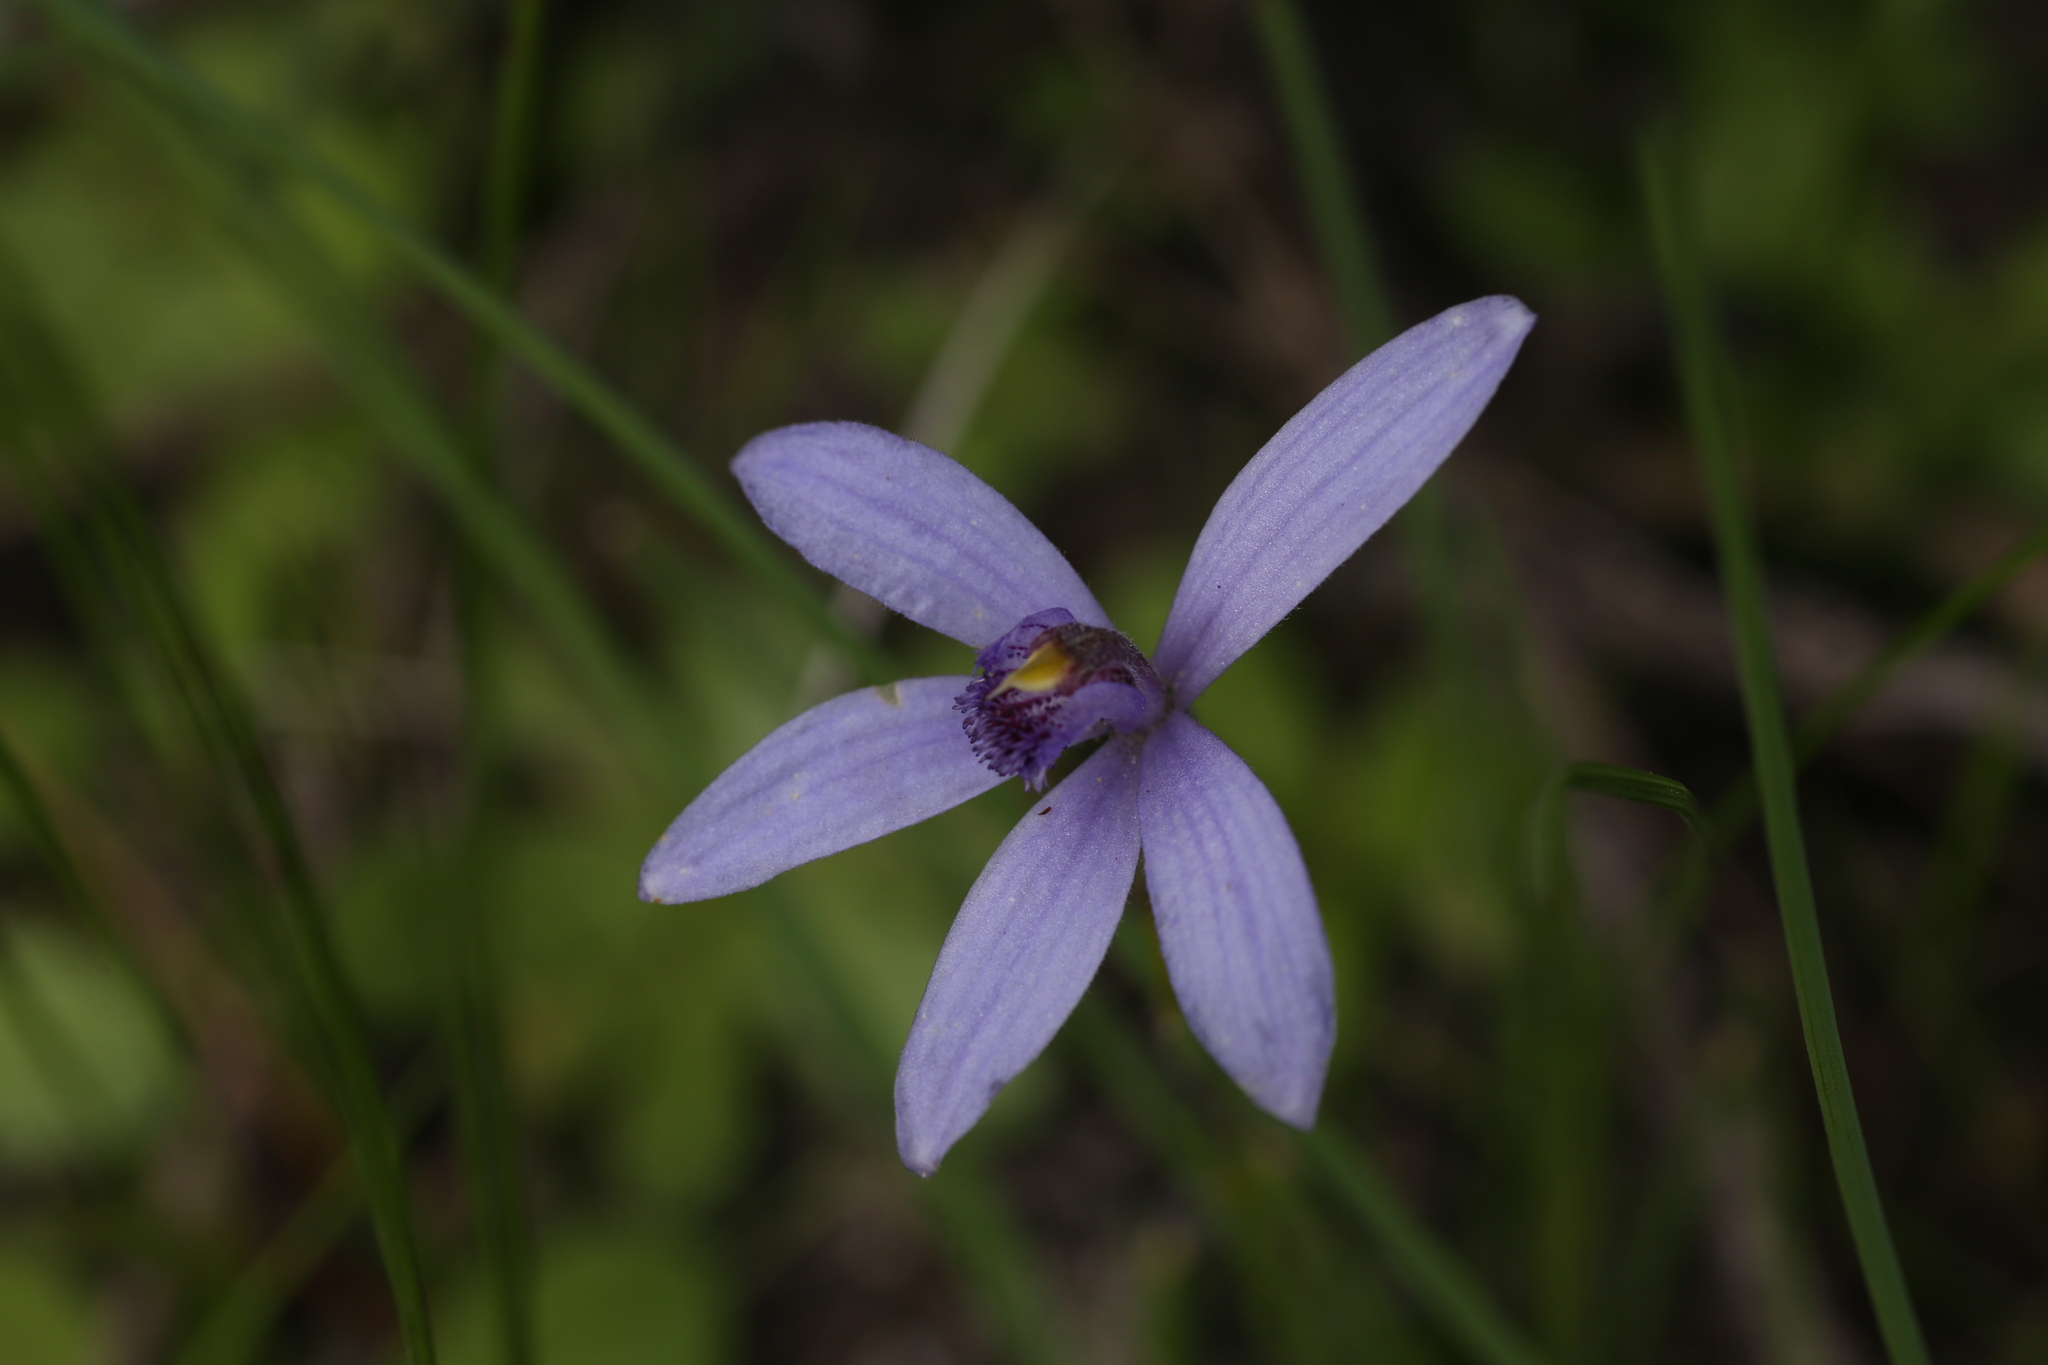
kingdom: Plantae
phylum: Tracheophyta
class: Liliopsida
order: Asparagales
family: Orchidaceae
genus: Pheladenia
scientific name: Pheladenia deformis
